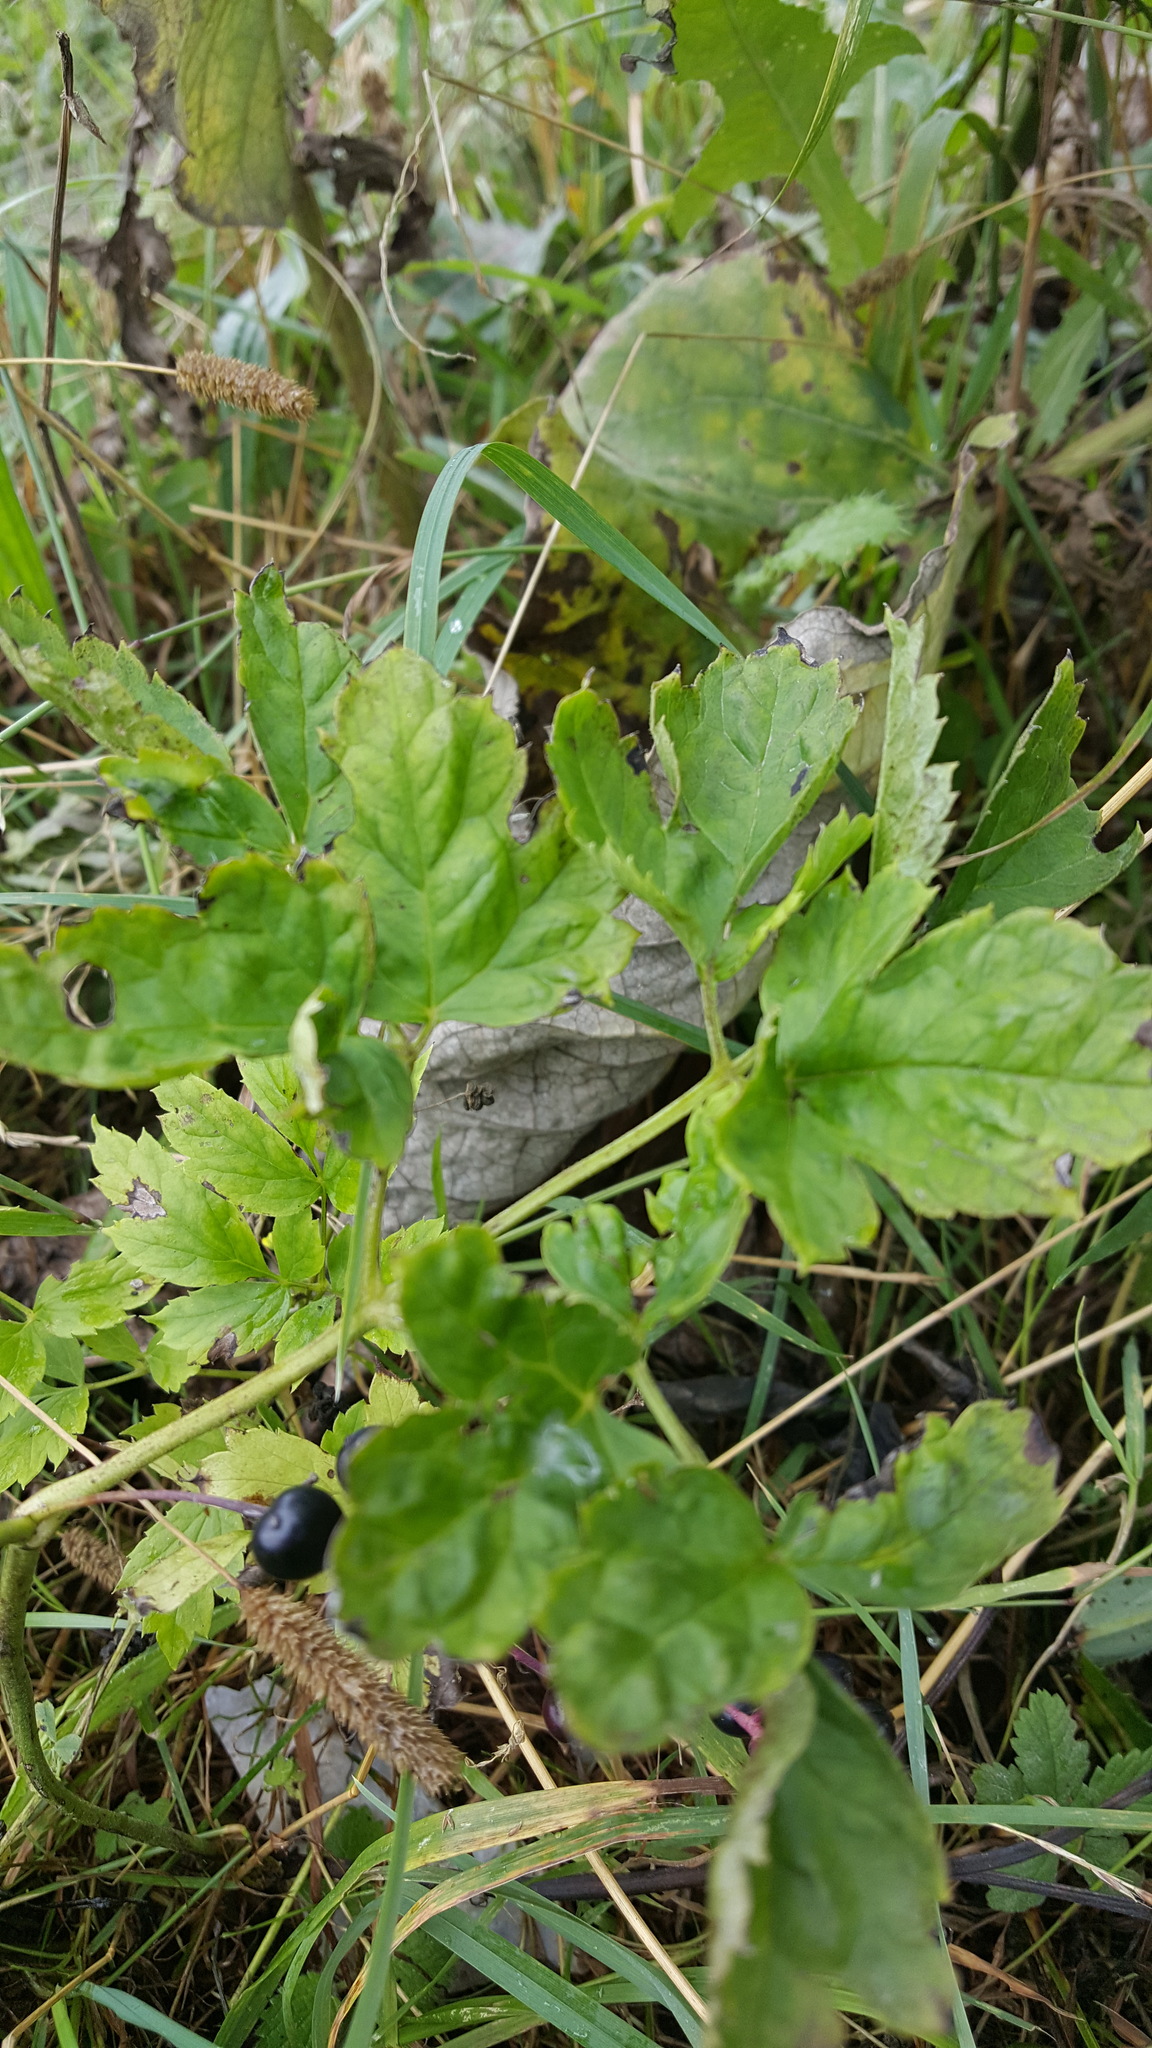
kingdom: Plantae
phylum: Tracheophyta
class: Magnoliopsida
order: Ranunculales
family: Ranunculaceae
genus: Actaea
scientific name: Actaea spicata
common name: Baneberry
